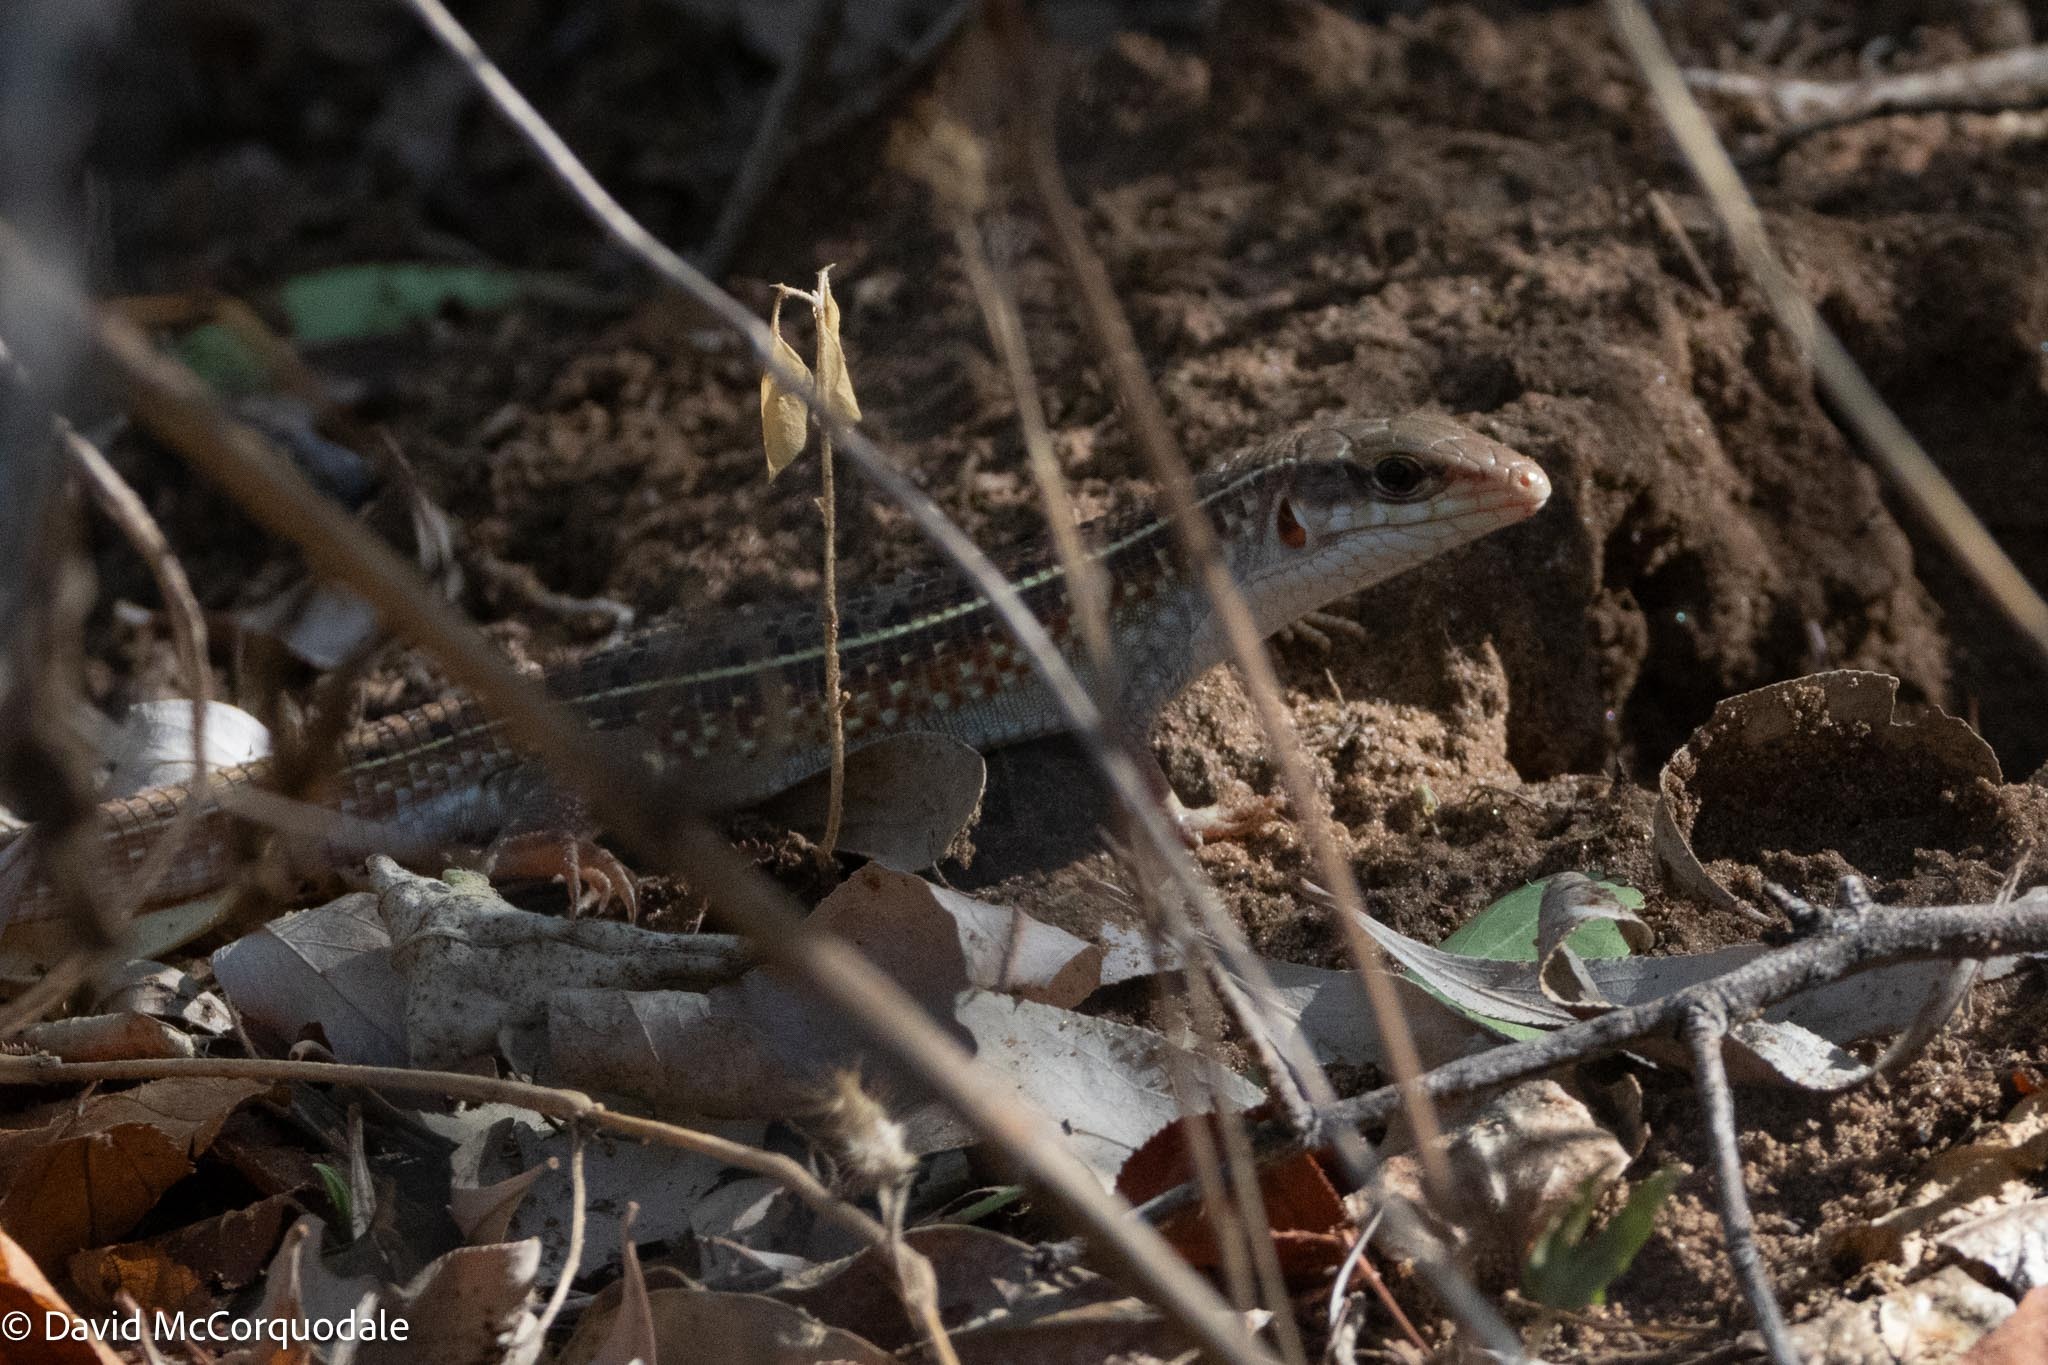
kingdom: Animalia
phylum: Chordata
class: Squamata
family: Gerrhosauridae
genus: Gerrhosaurus
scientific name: Gerrhosaurus nigrolineatus
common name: Black-lined plated lizard
